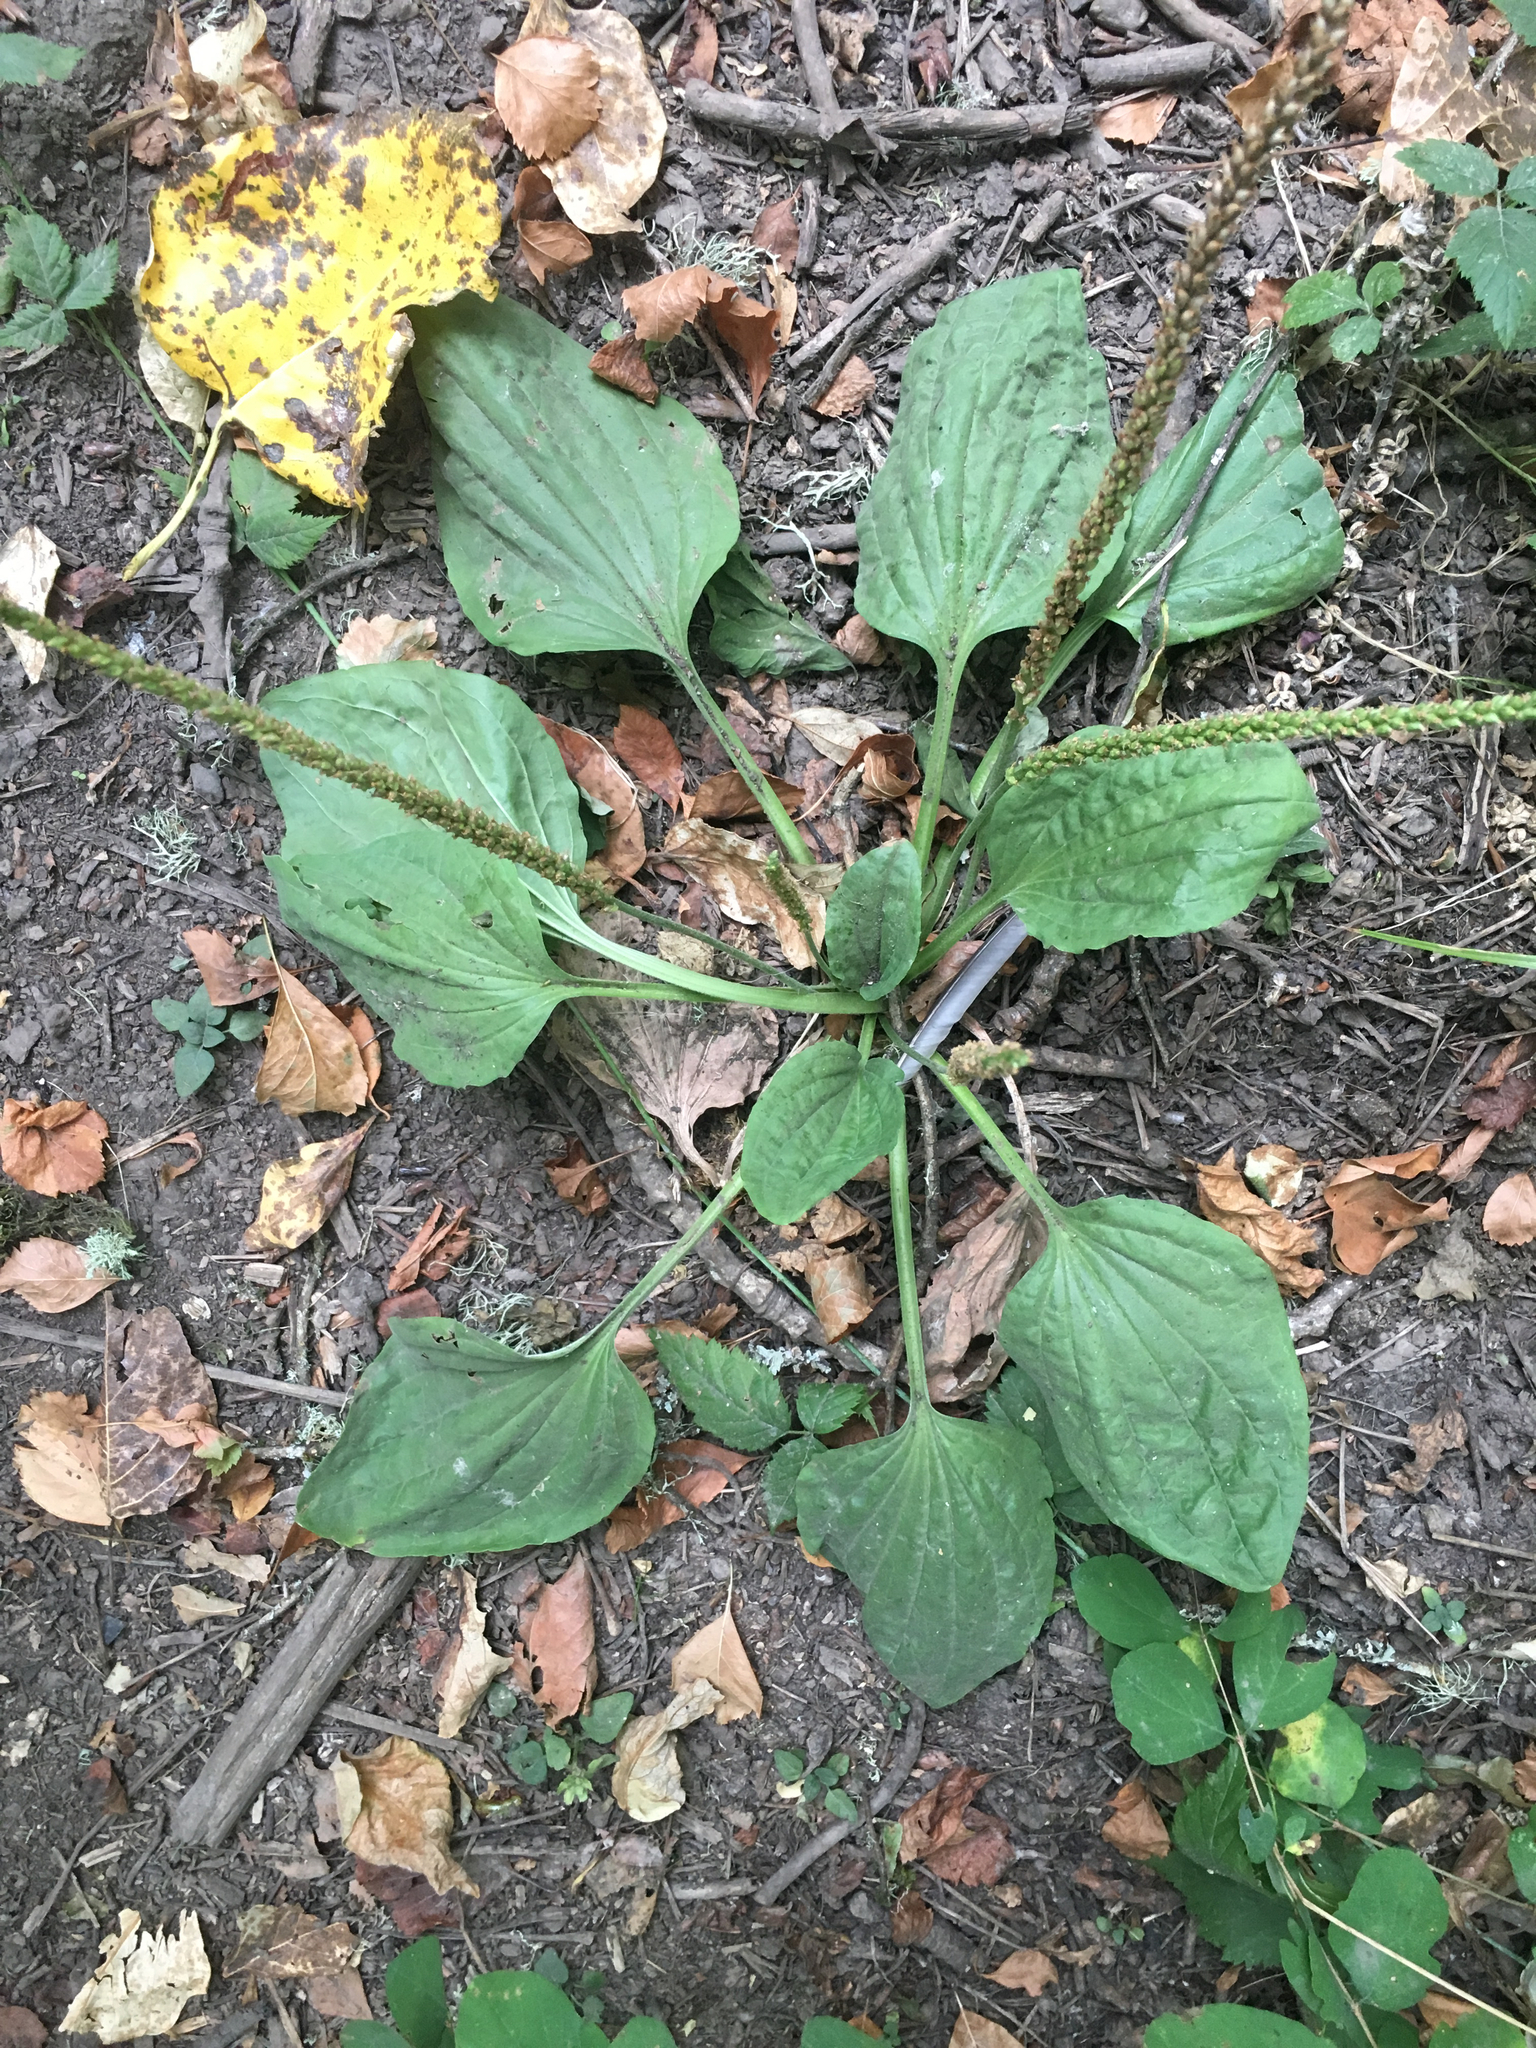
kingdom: Plantae
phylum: Tracheophyta
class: Magnoliopsida
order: Lamiales
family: Plantaginaceae
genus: Plantago
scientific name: Plantago major
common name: Common plantain
